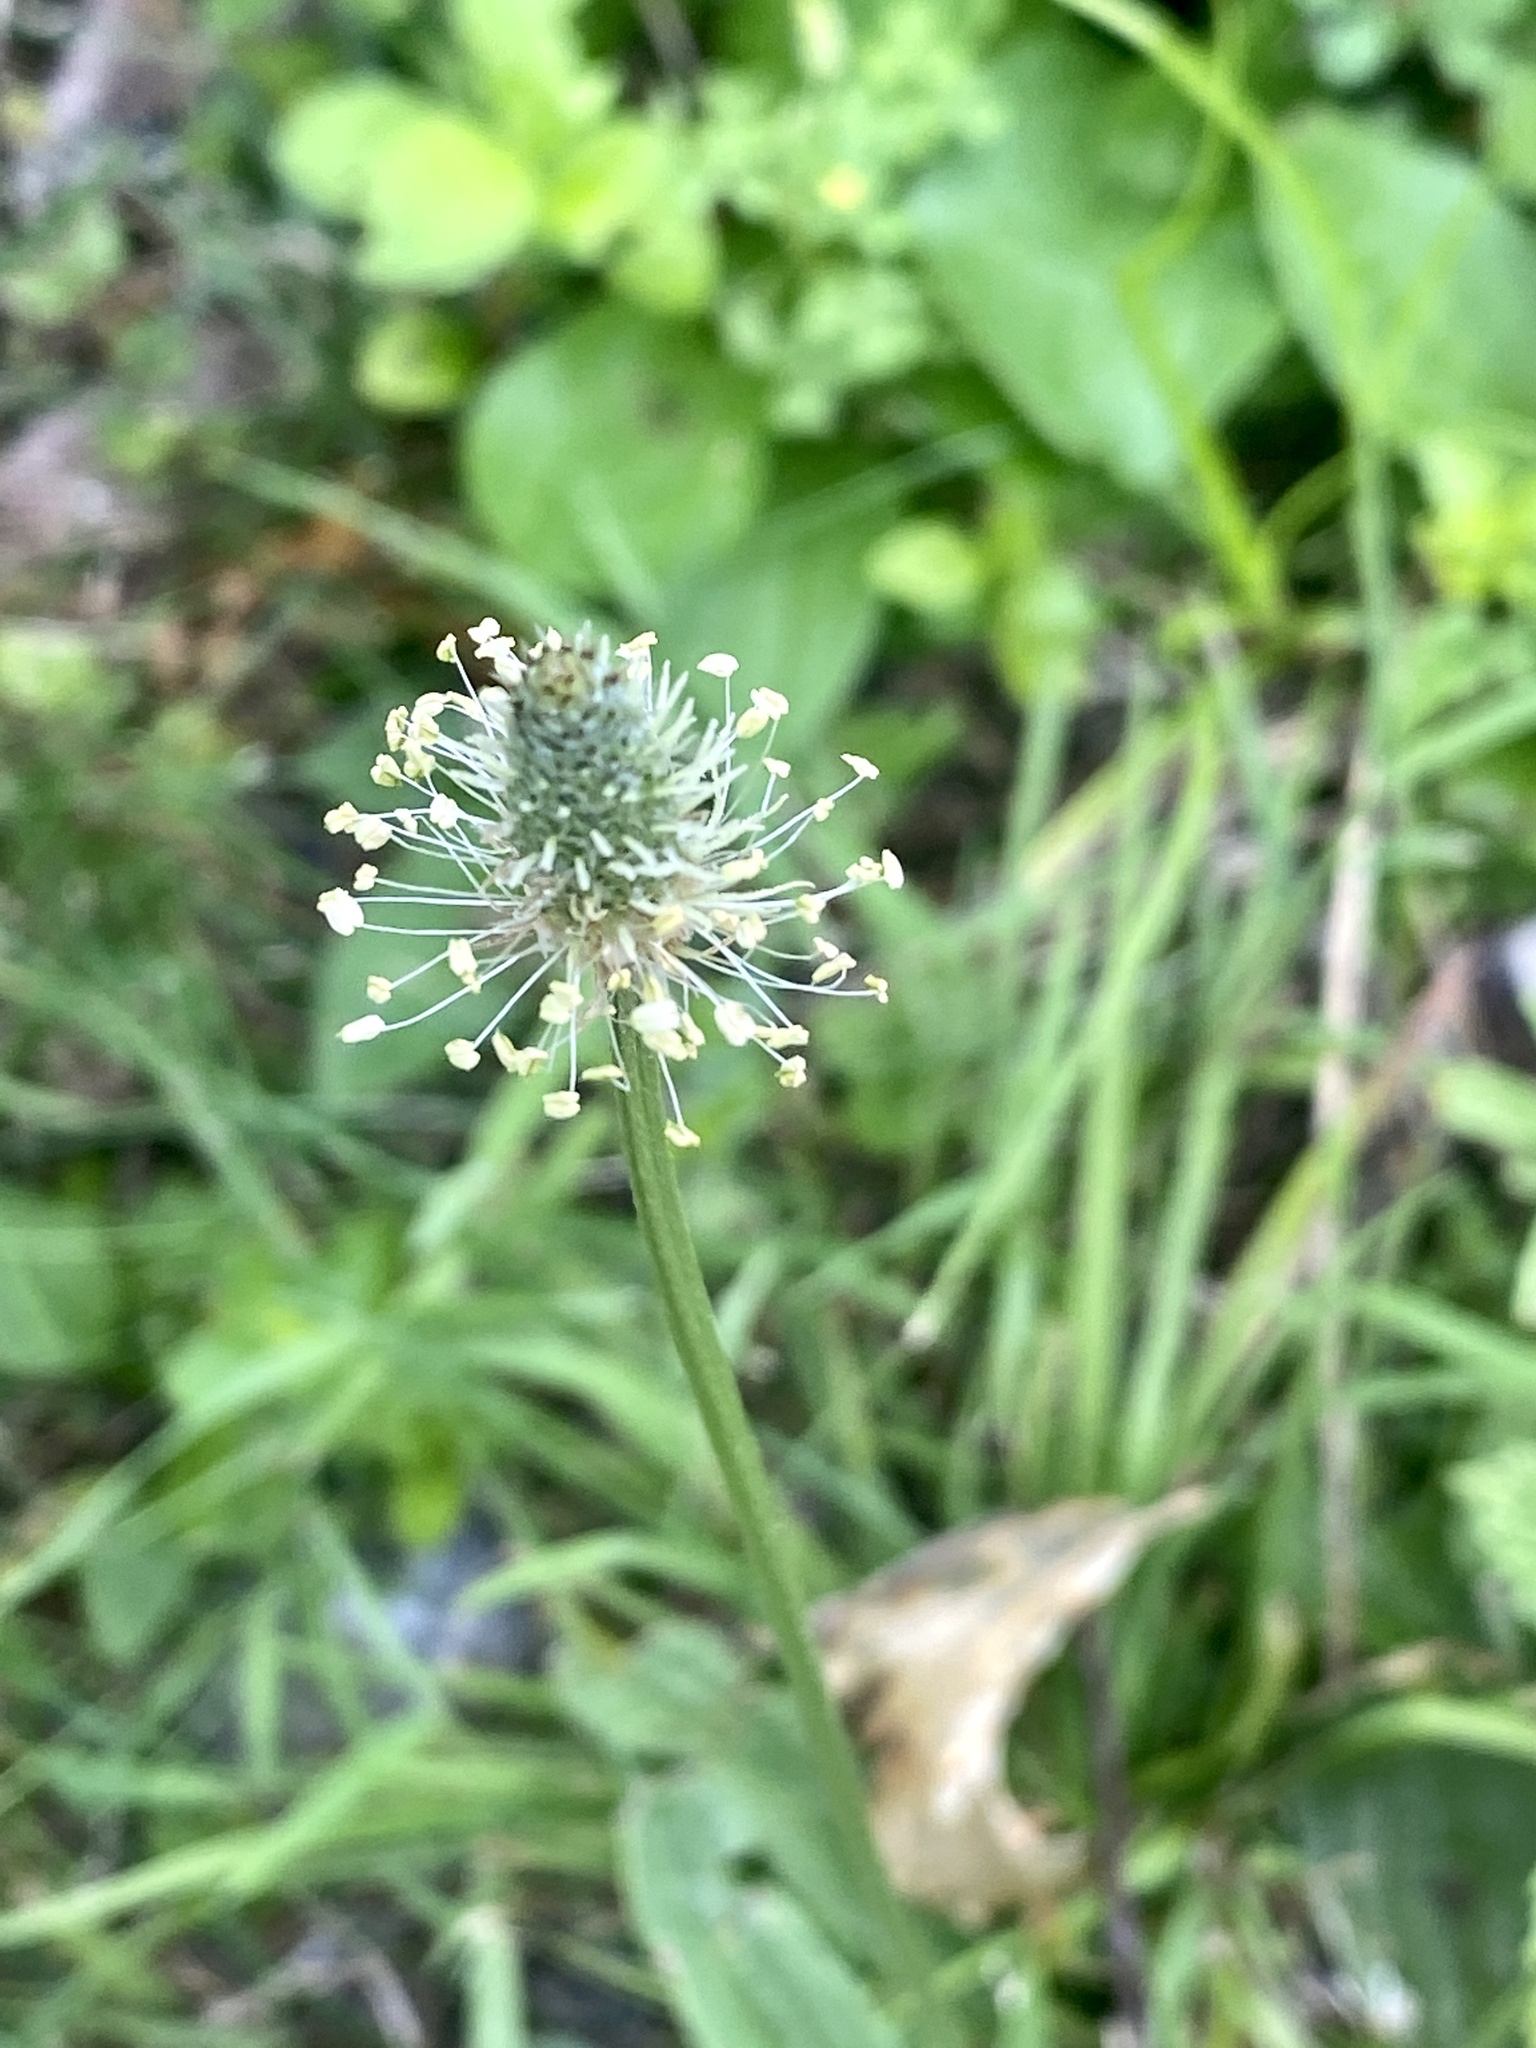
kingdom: Plantae
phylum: Tracheophyta
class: Magnoliopsida
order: Lamiales
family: Plantaginaceae
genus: Plantago
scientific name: Plantago lanceolata
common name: Ribwort plantain
